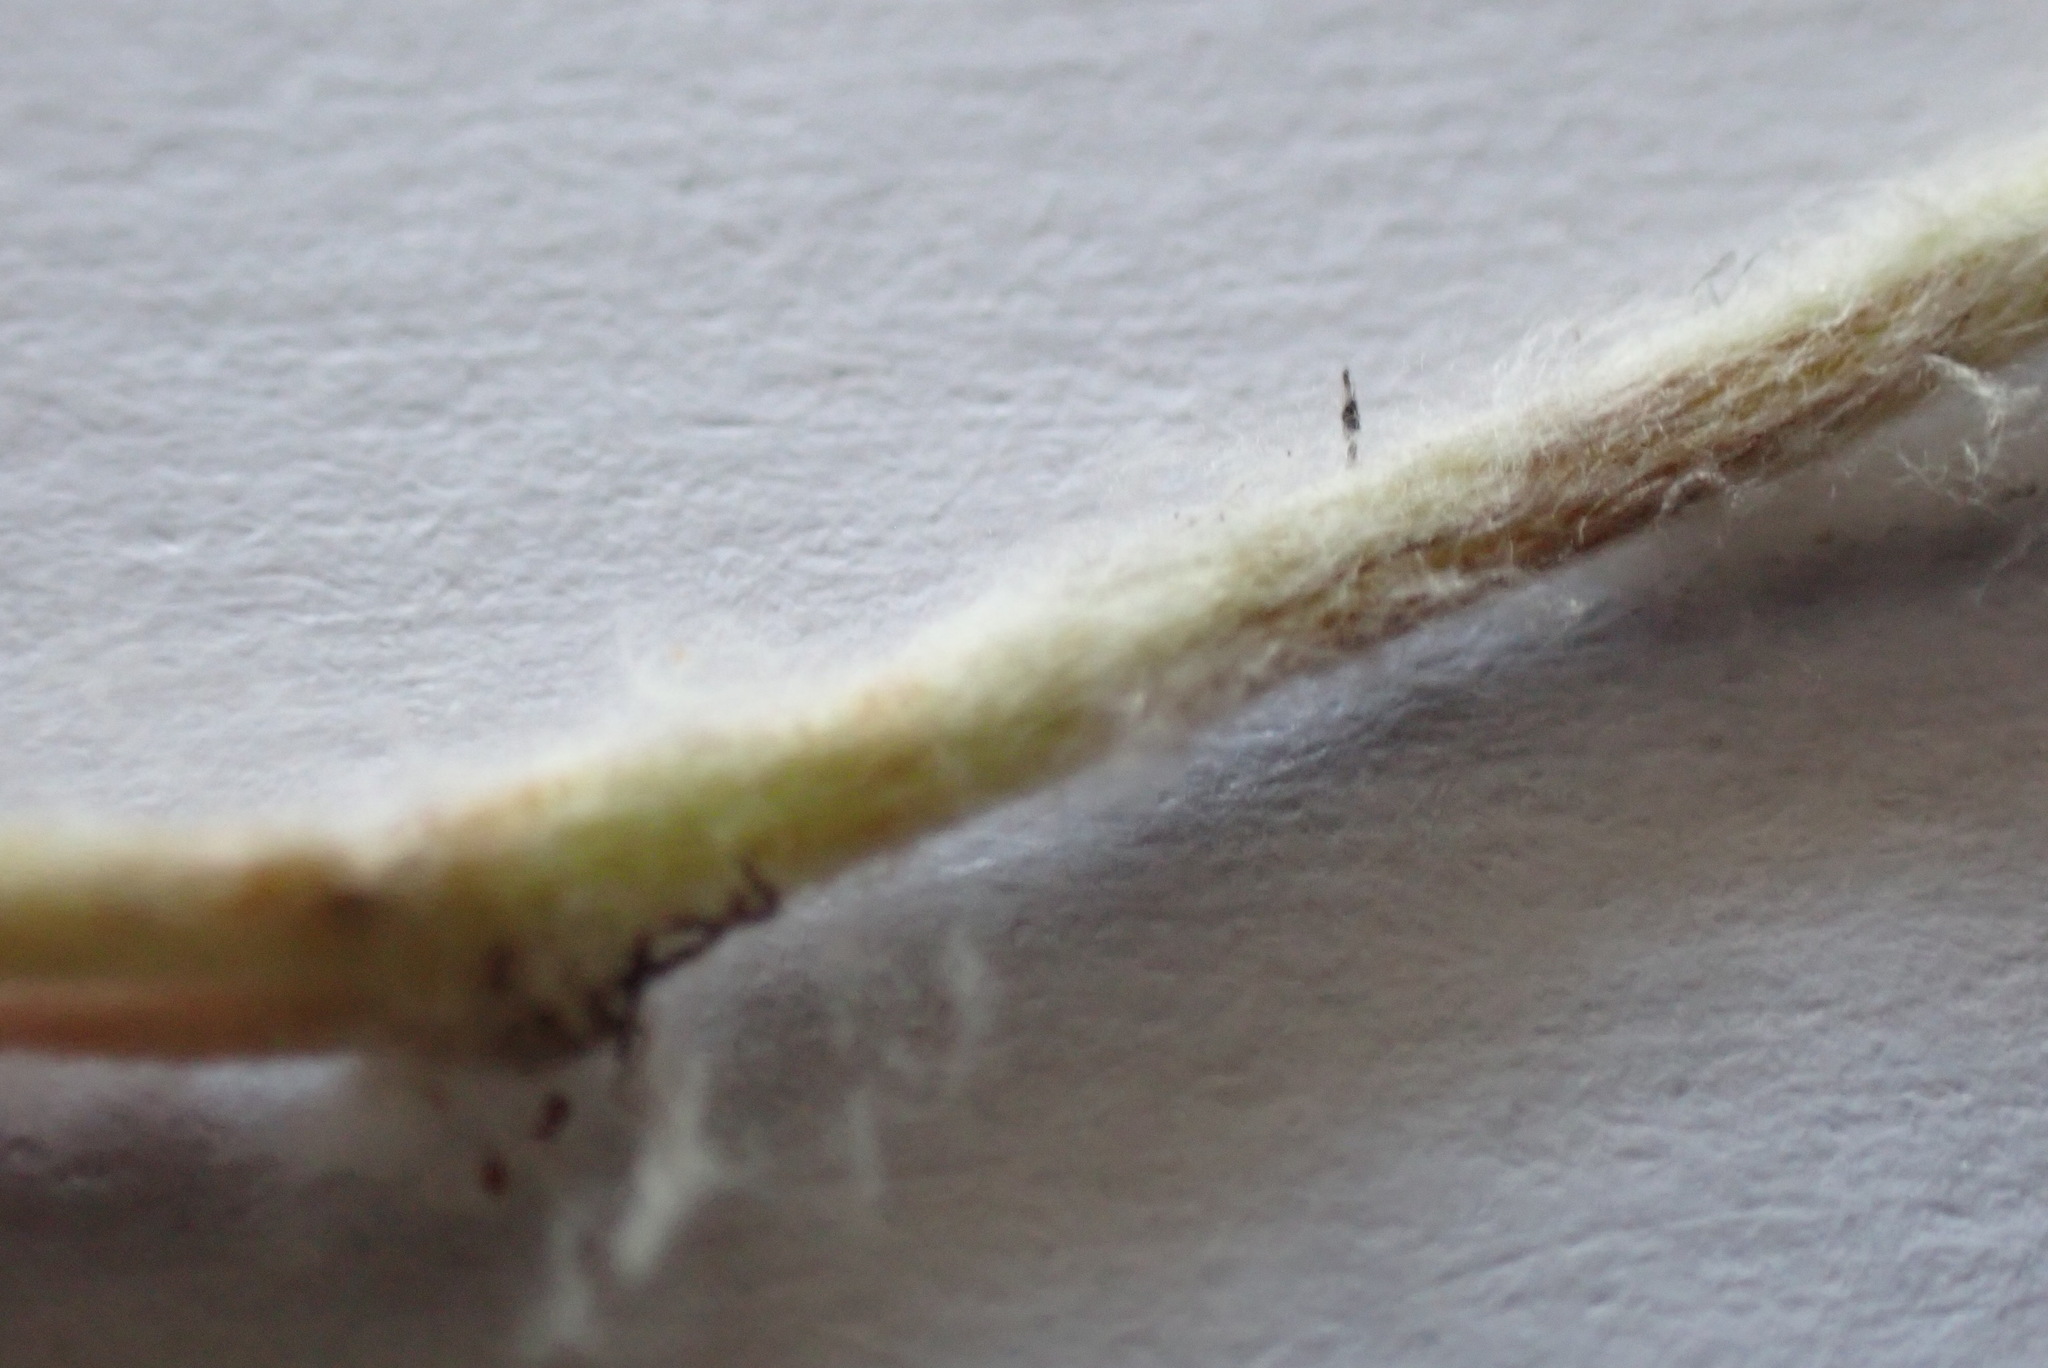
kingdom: Plantae
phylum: Tracheophyta
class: Magnoliopsida
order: Asterales
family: Asteraceae
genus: Gnaphalium
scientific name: Gnaphalium uliginosum
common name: Marsh cudweed
